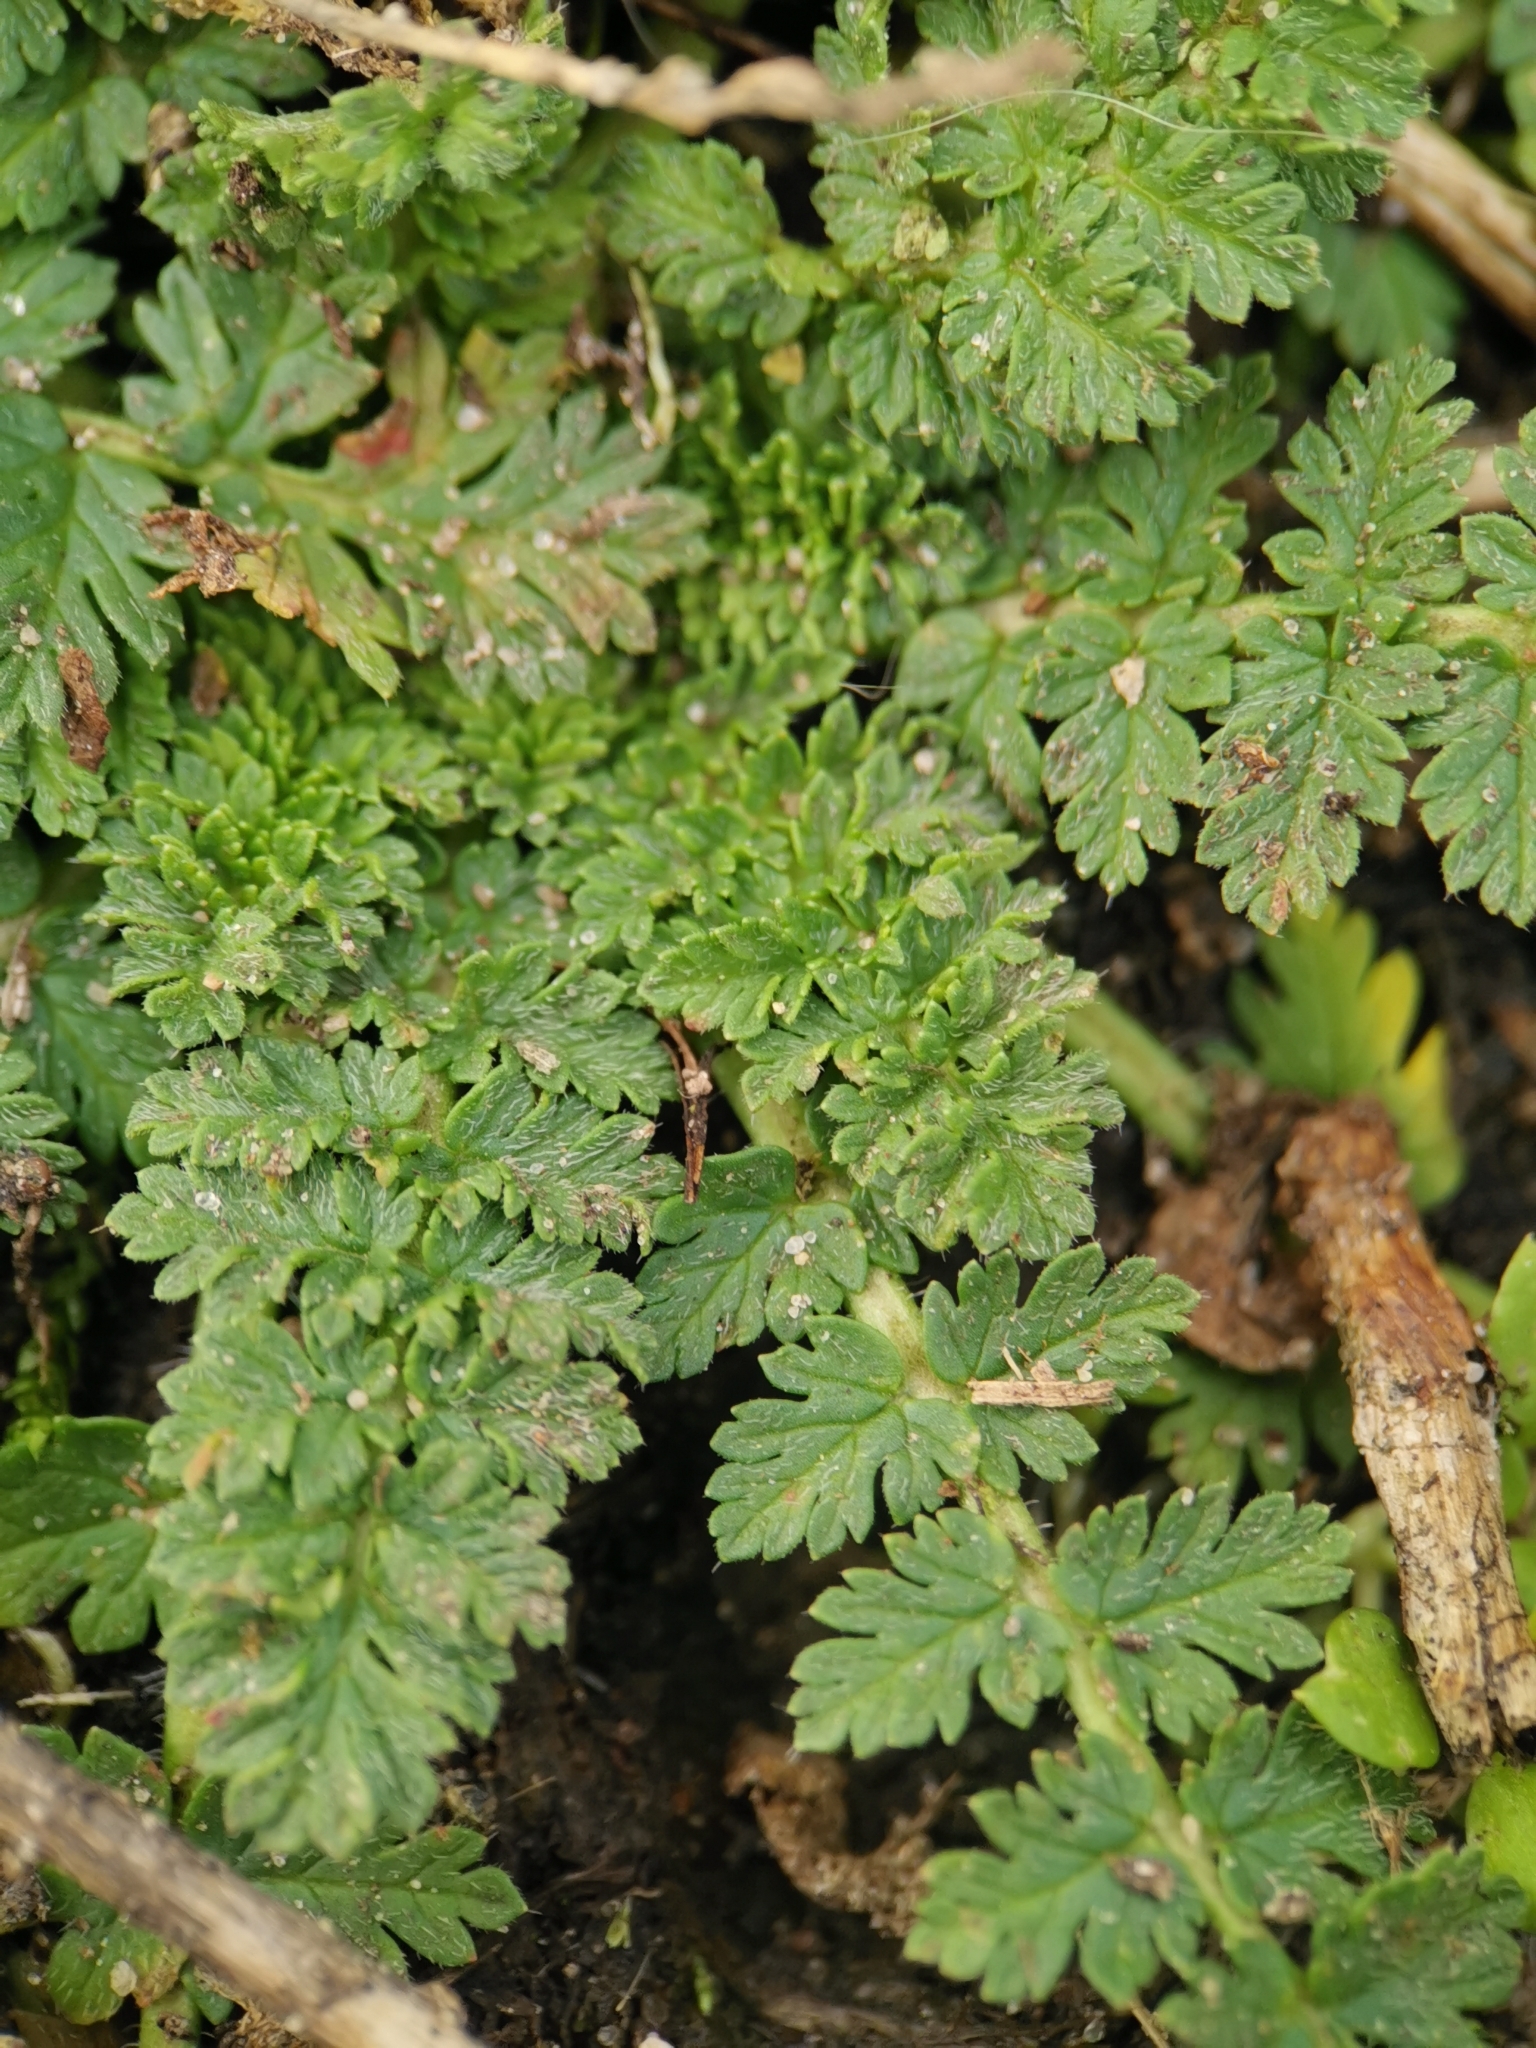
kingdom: Plantae
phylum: Tracheophyta
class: Magnoliopsida
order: Geraniales
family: Geraniaceae
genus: Erodium
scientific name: Erodium cicutarium
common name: Common stork's-bill
